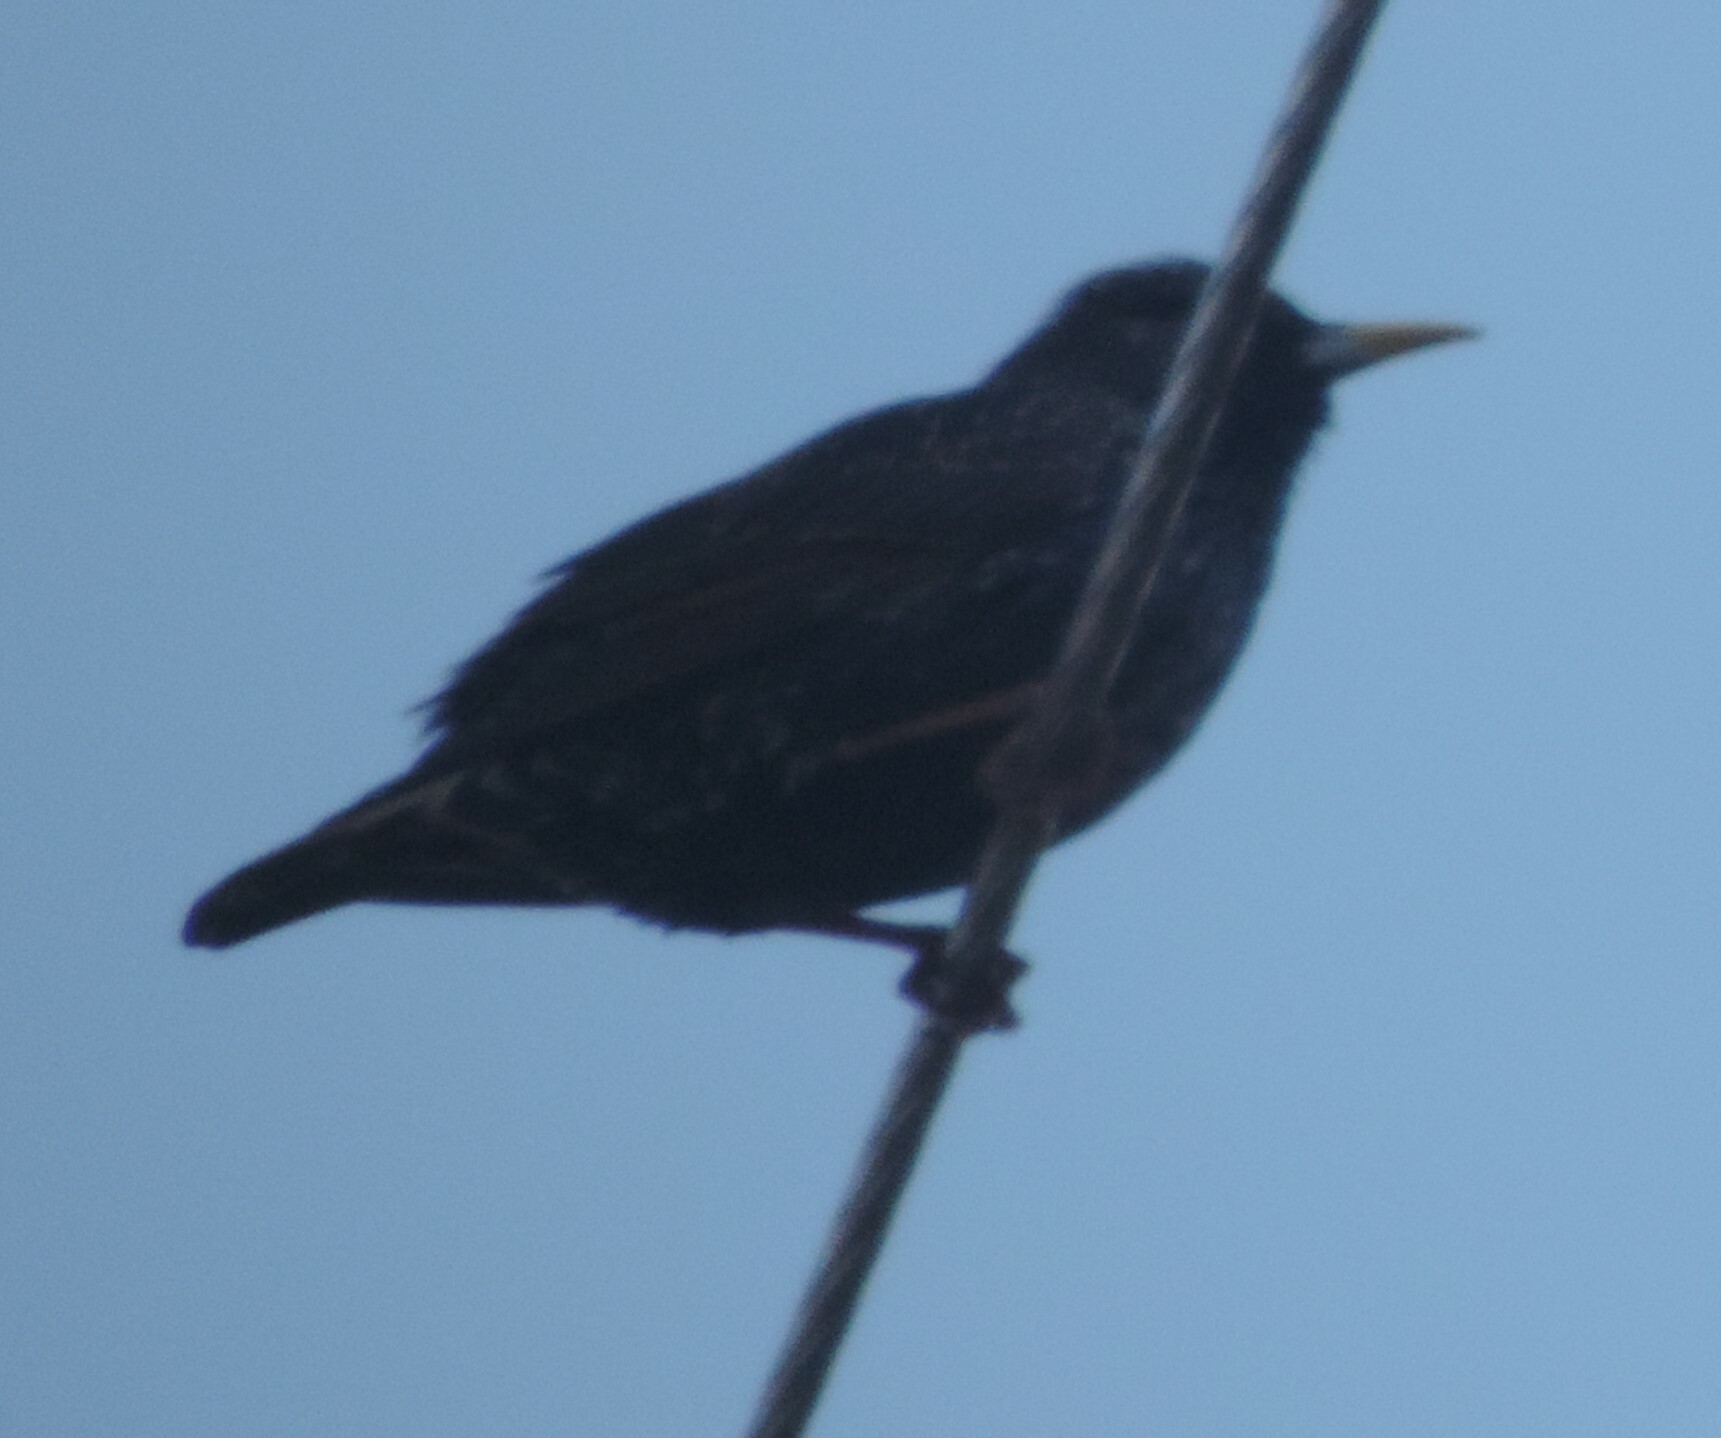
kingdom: Animalia
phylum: Chordata
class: Aves
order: Passeriformes
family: Sturnidae
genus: Sturnus
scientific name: Sturnus vulgaris
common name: Common starling
